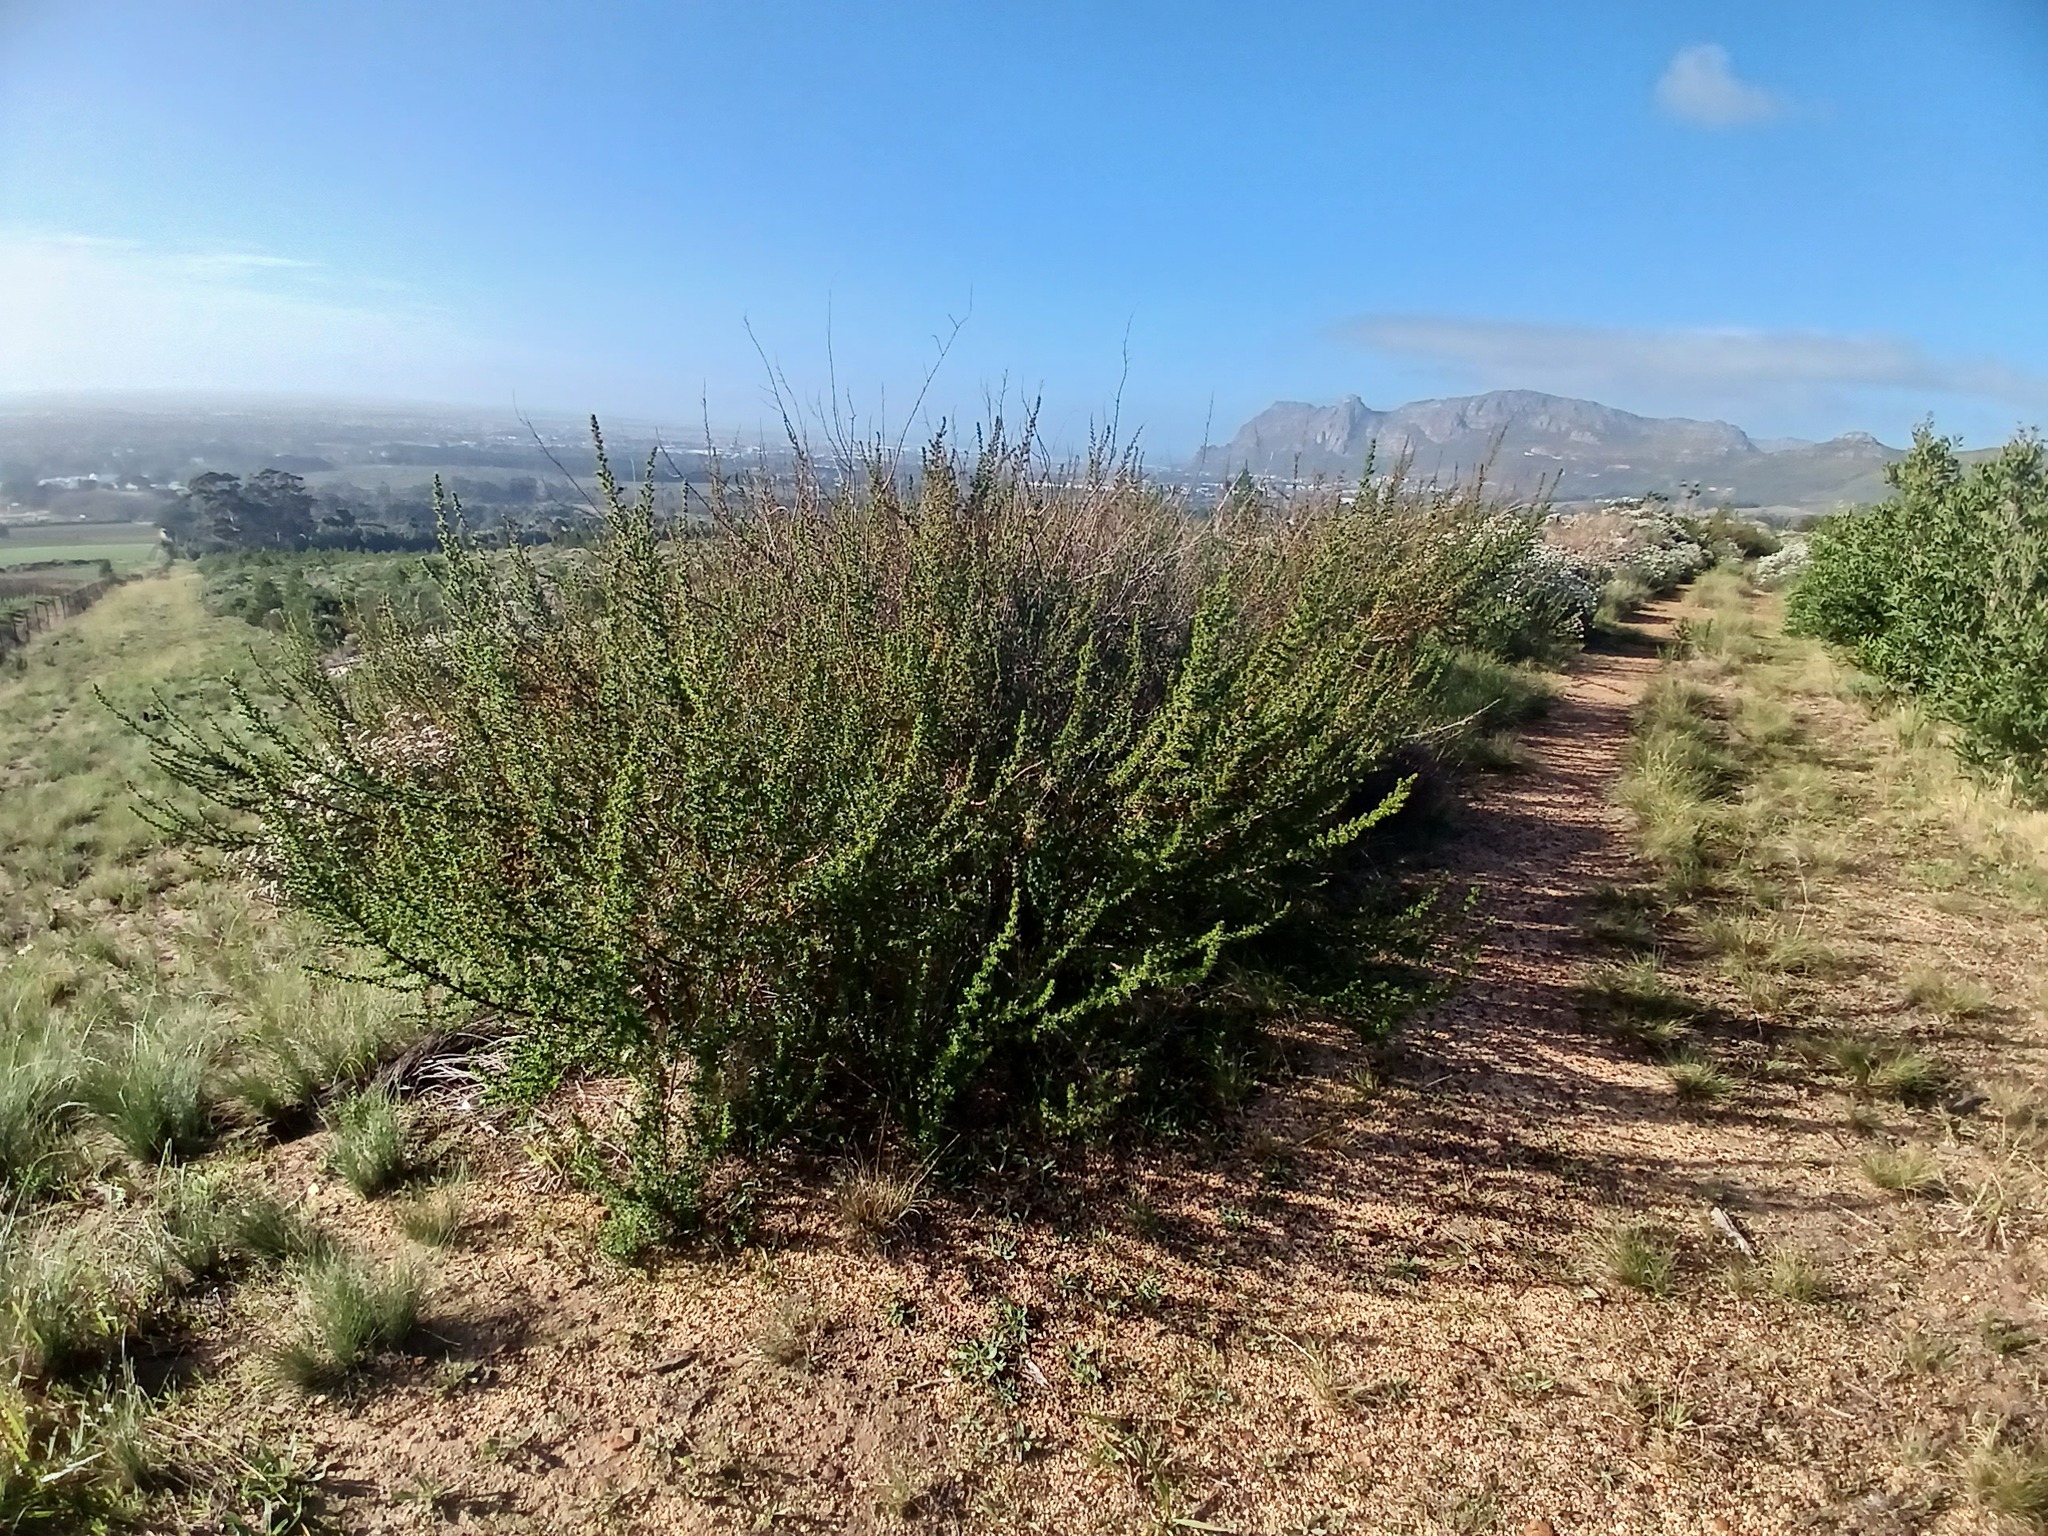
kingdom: Plantae
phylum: Tracheophyta
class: Magnoliopsida
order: Rosales
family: Rosaceae
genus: Cliffortia
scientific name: Cliffortia ruscifolia
